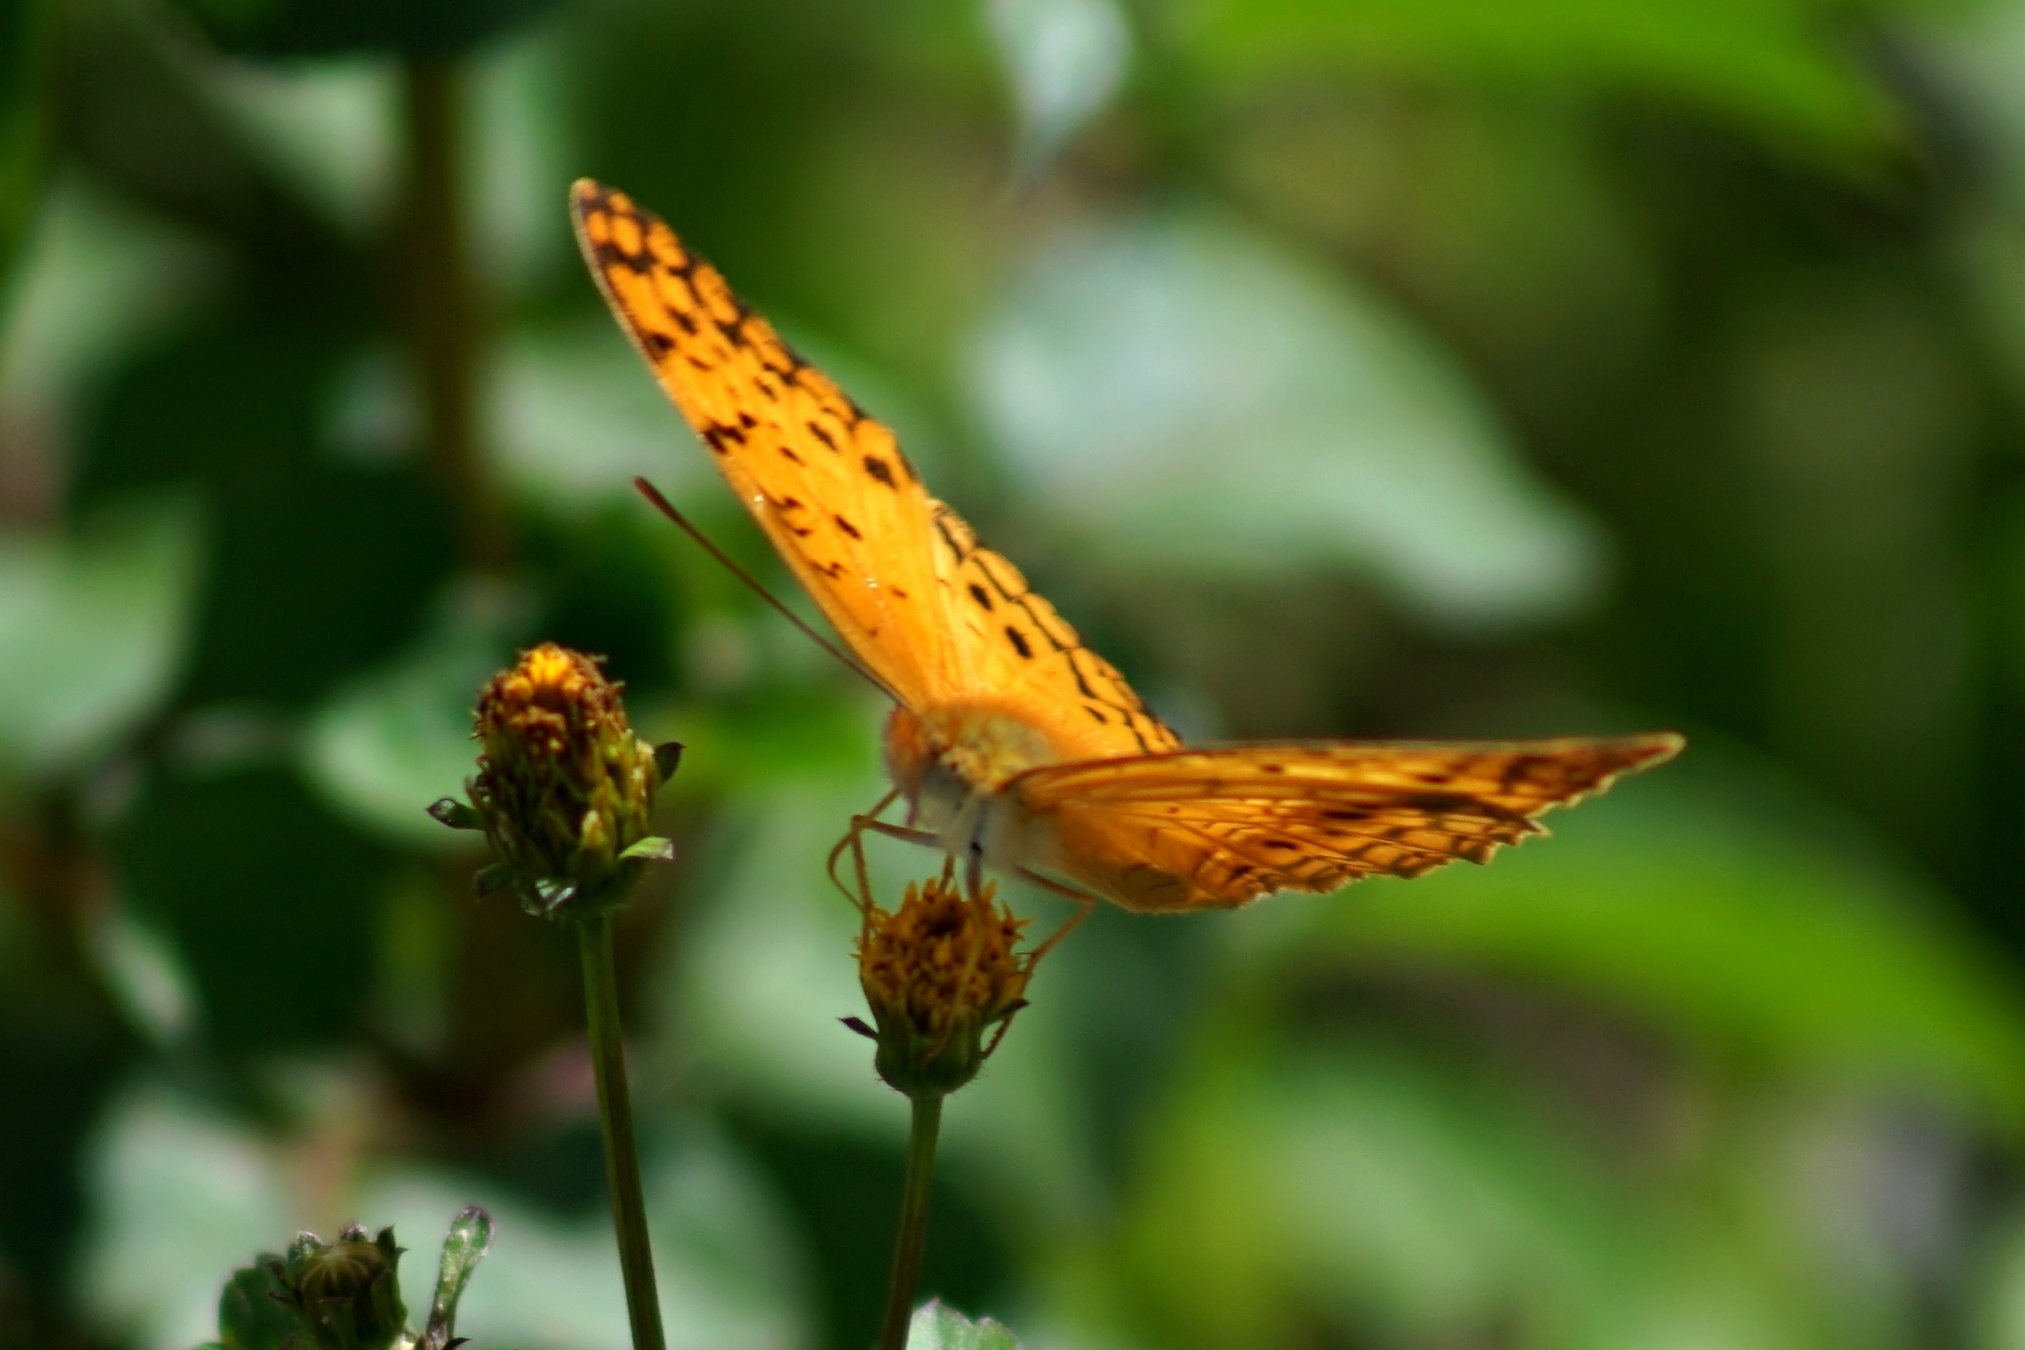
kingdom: Animalia
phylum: Arthropoda
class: Insecta
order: Lepidoptera
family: Nymphalidae
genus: Phalanta
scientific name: Phalanta phalantha
